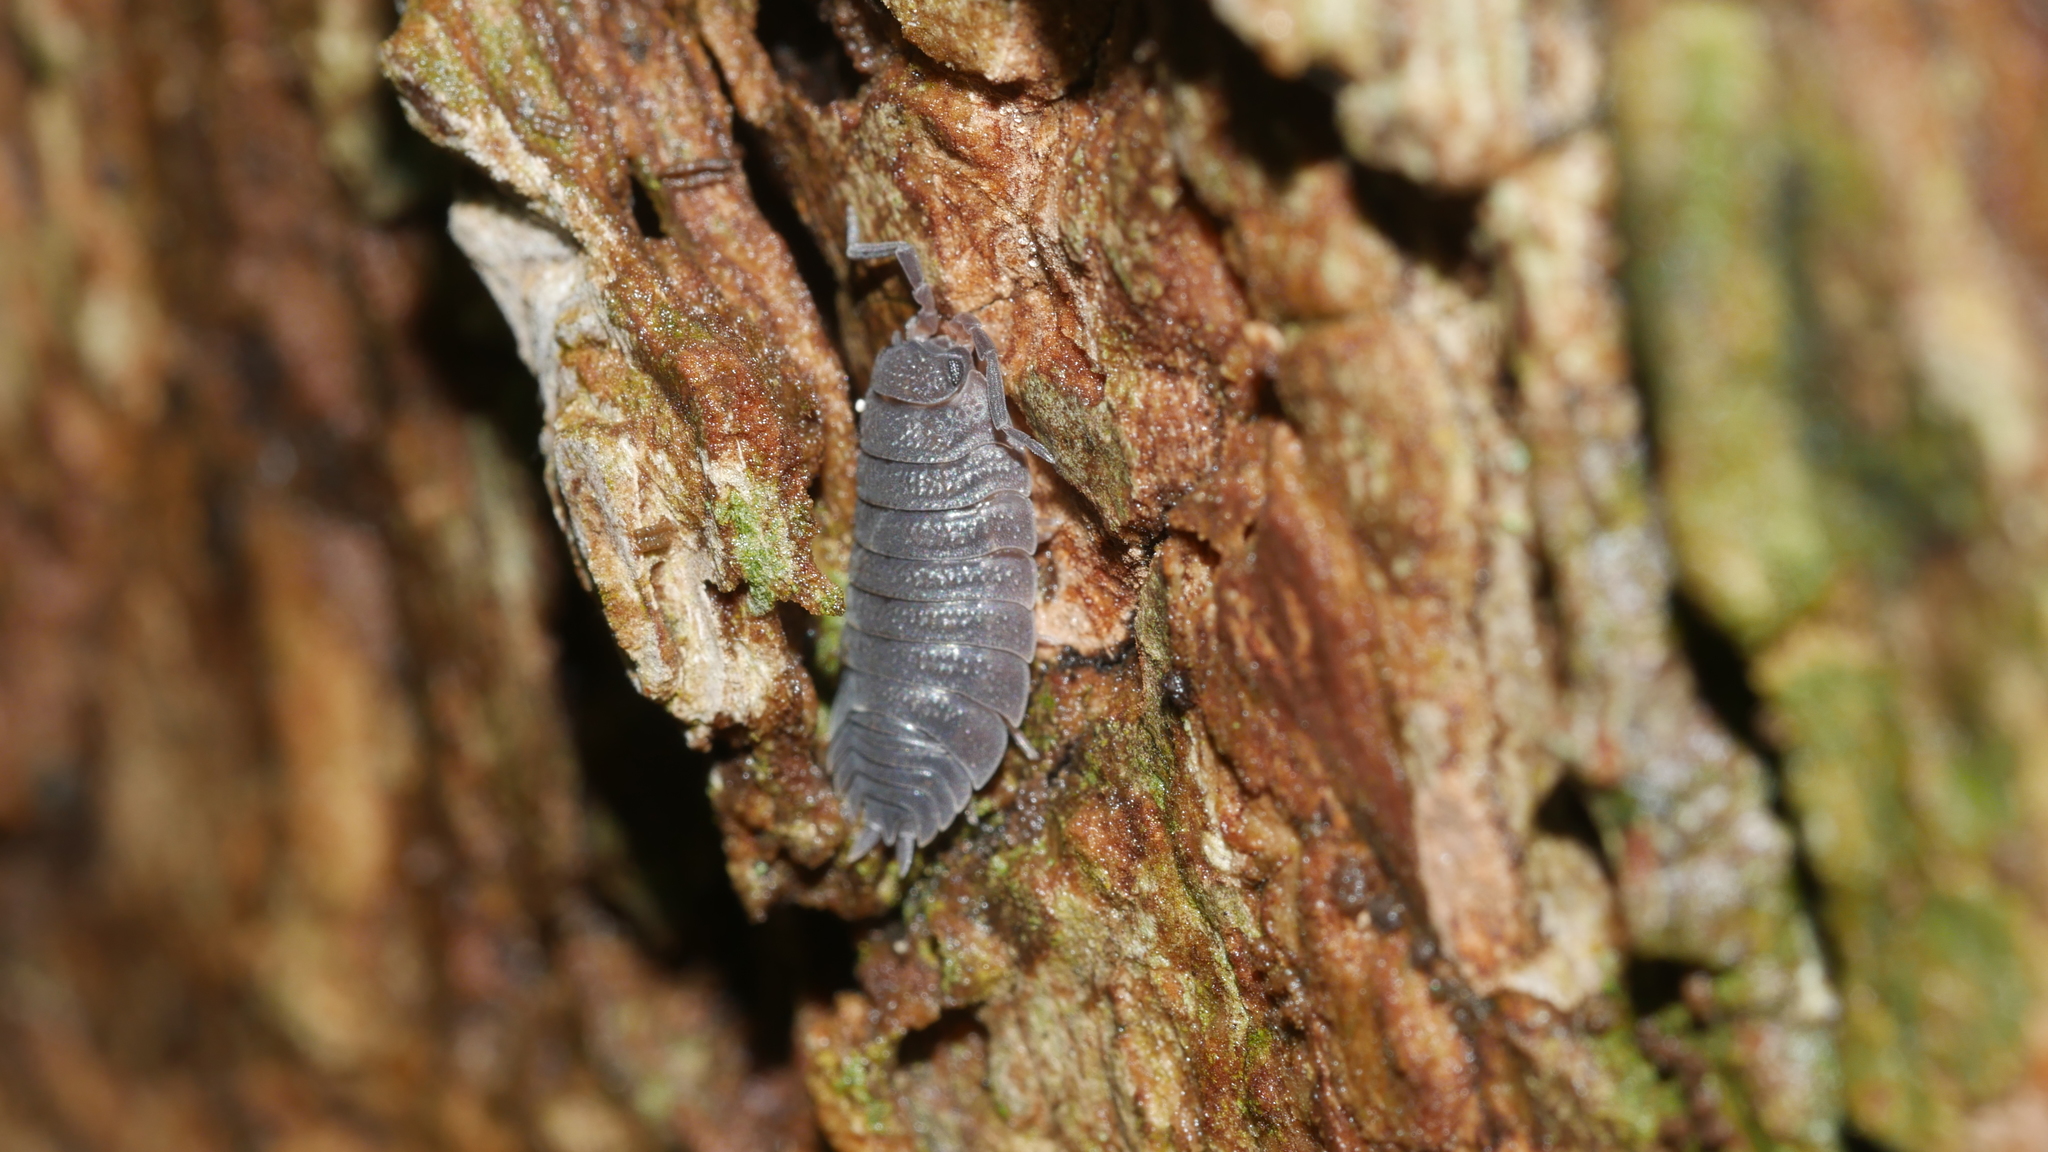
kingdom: Animalia
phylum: Arthropoda
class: Malacostraca
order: Isopoda
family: Porcellionidae
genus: Porcellio
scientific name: Porcellio scaber
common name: Common rough woodlouse
